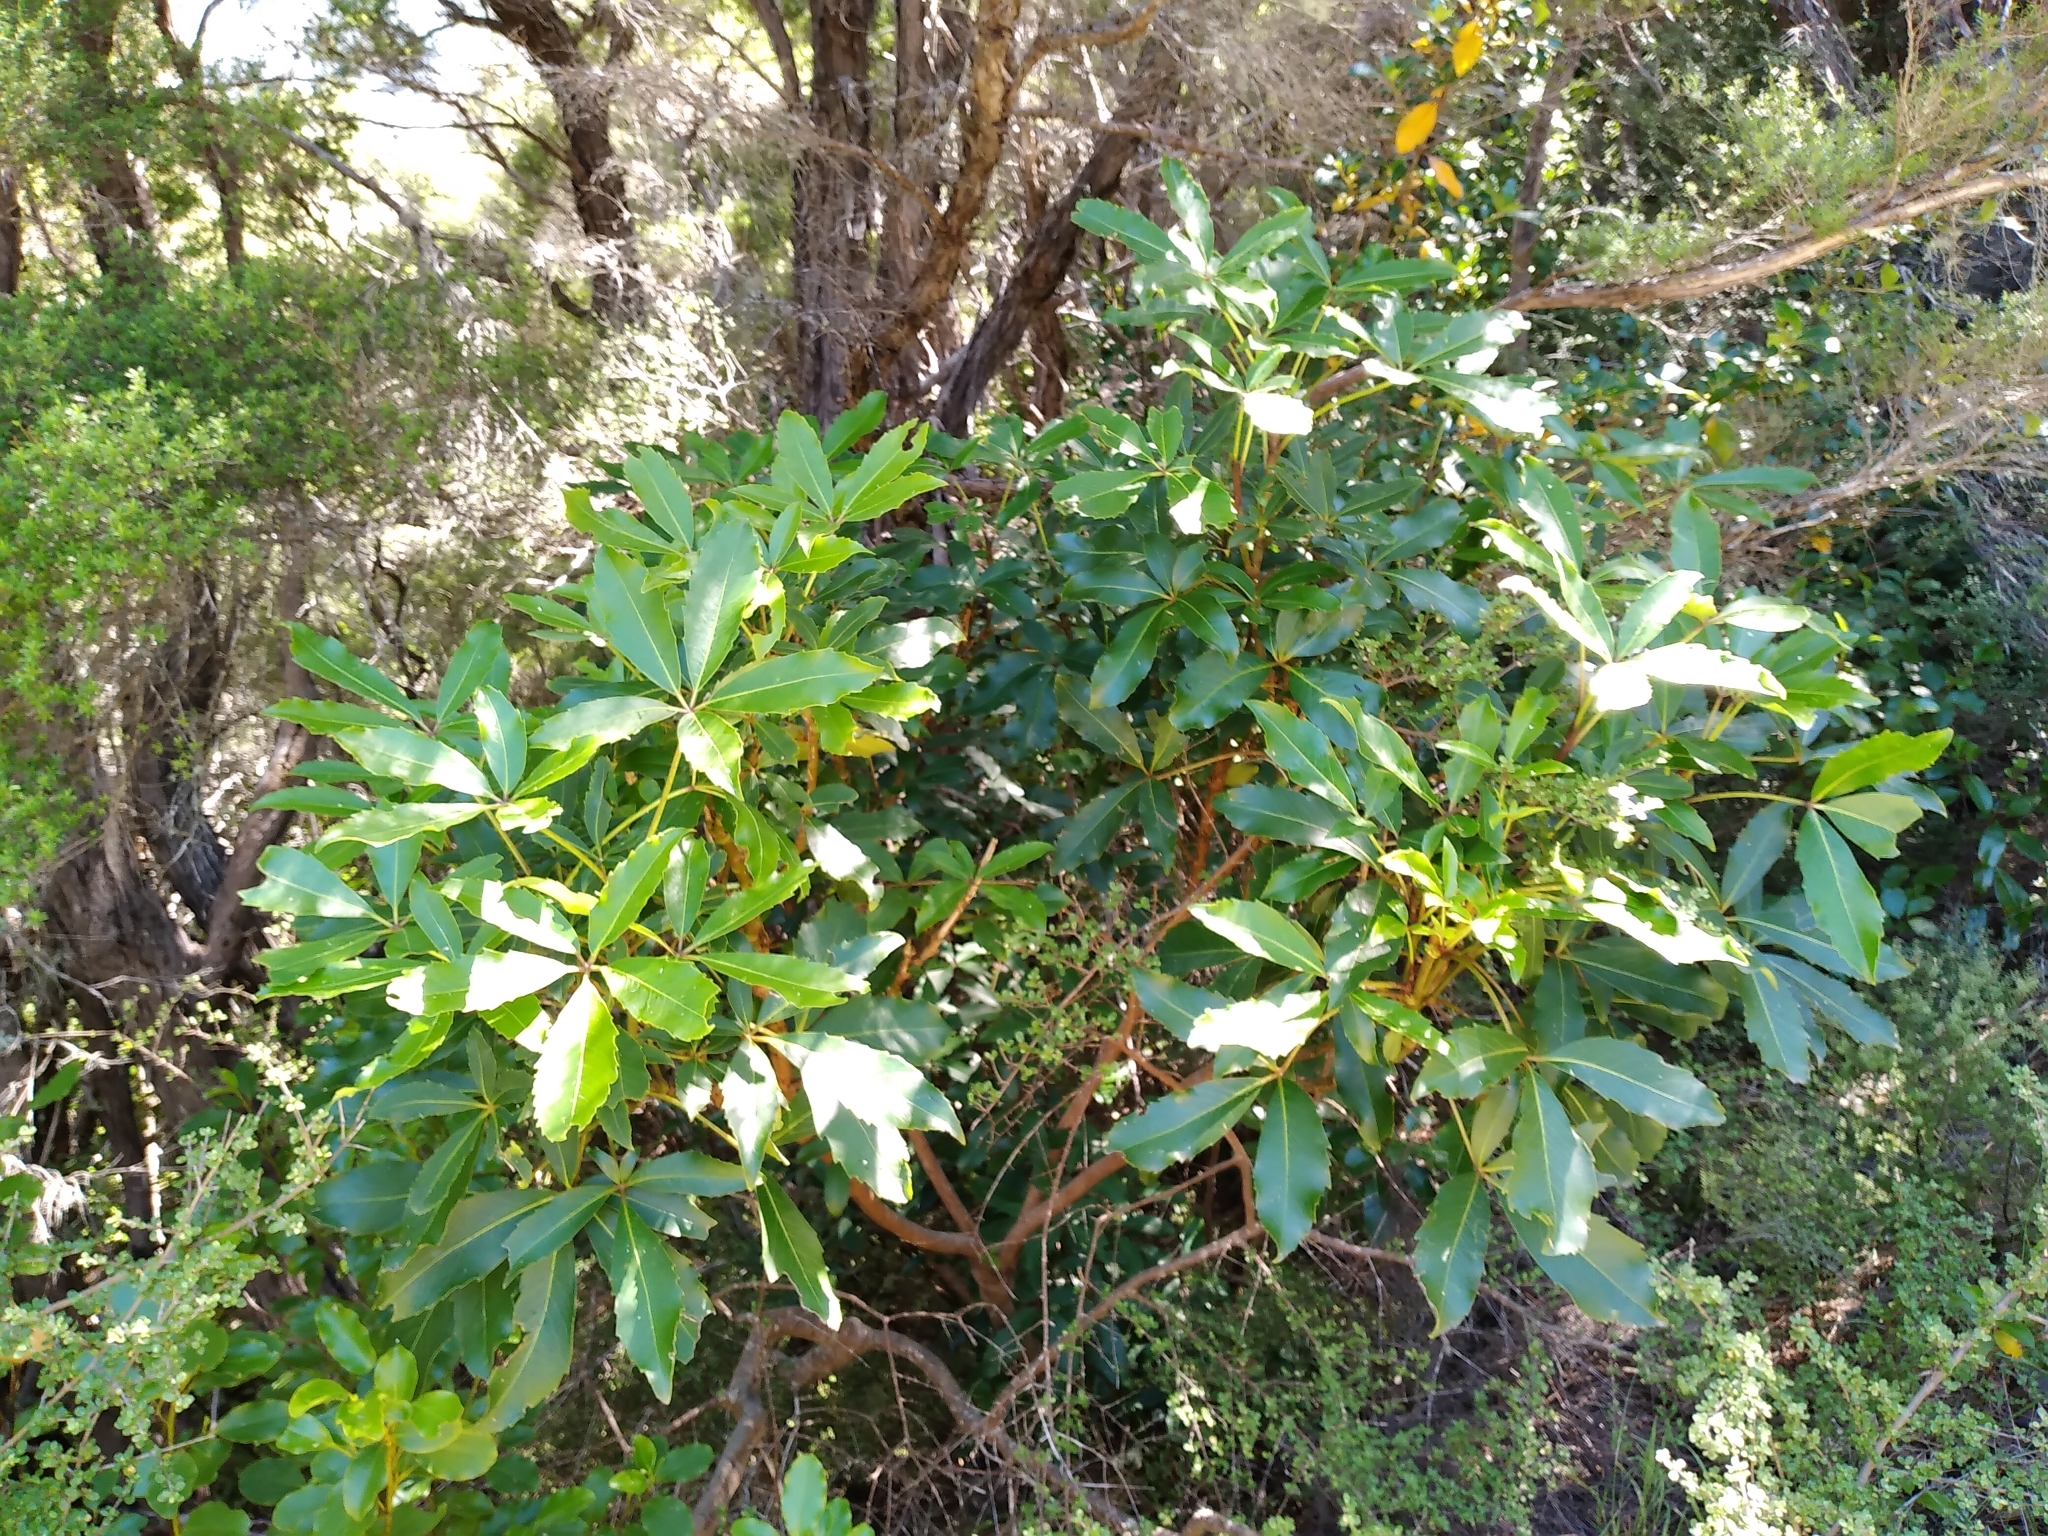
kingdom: Plantae
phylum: Tracheophyta
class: Magnoliopsida
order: Apiales
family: Araliaceae
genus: Neopanax
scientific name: Neopanax colensoi
